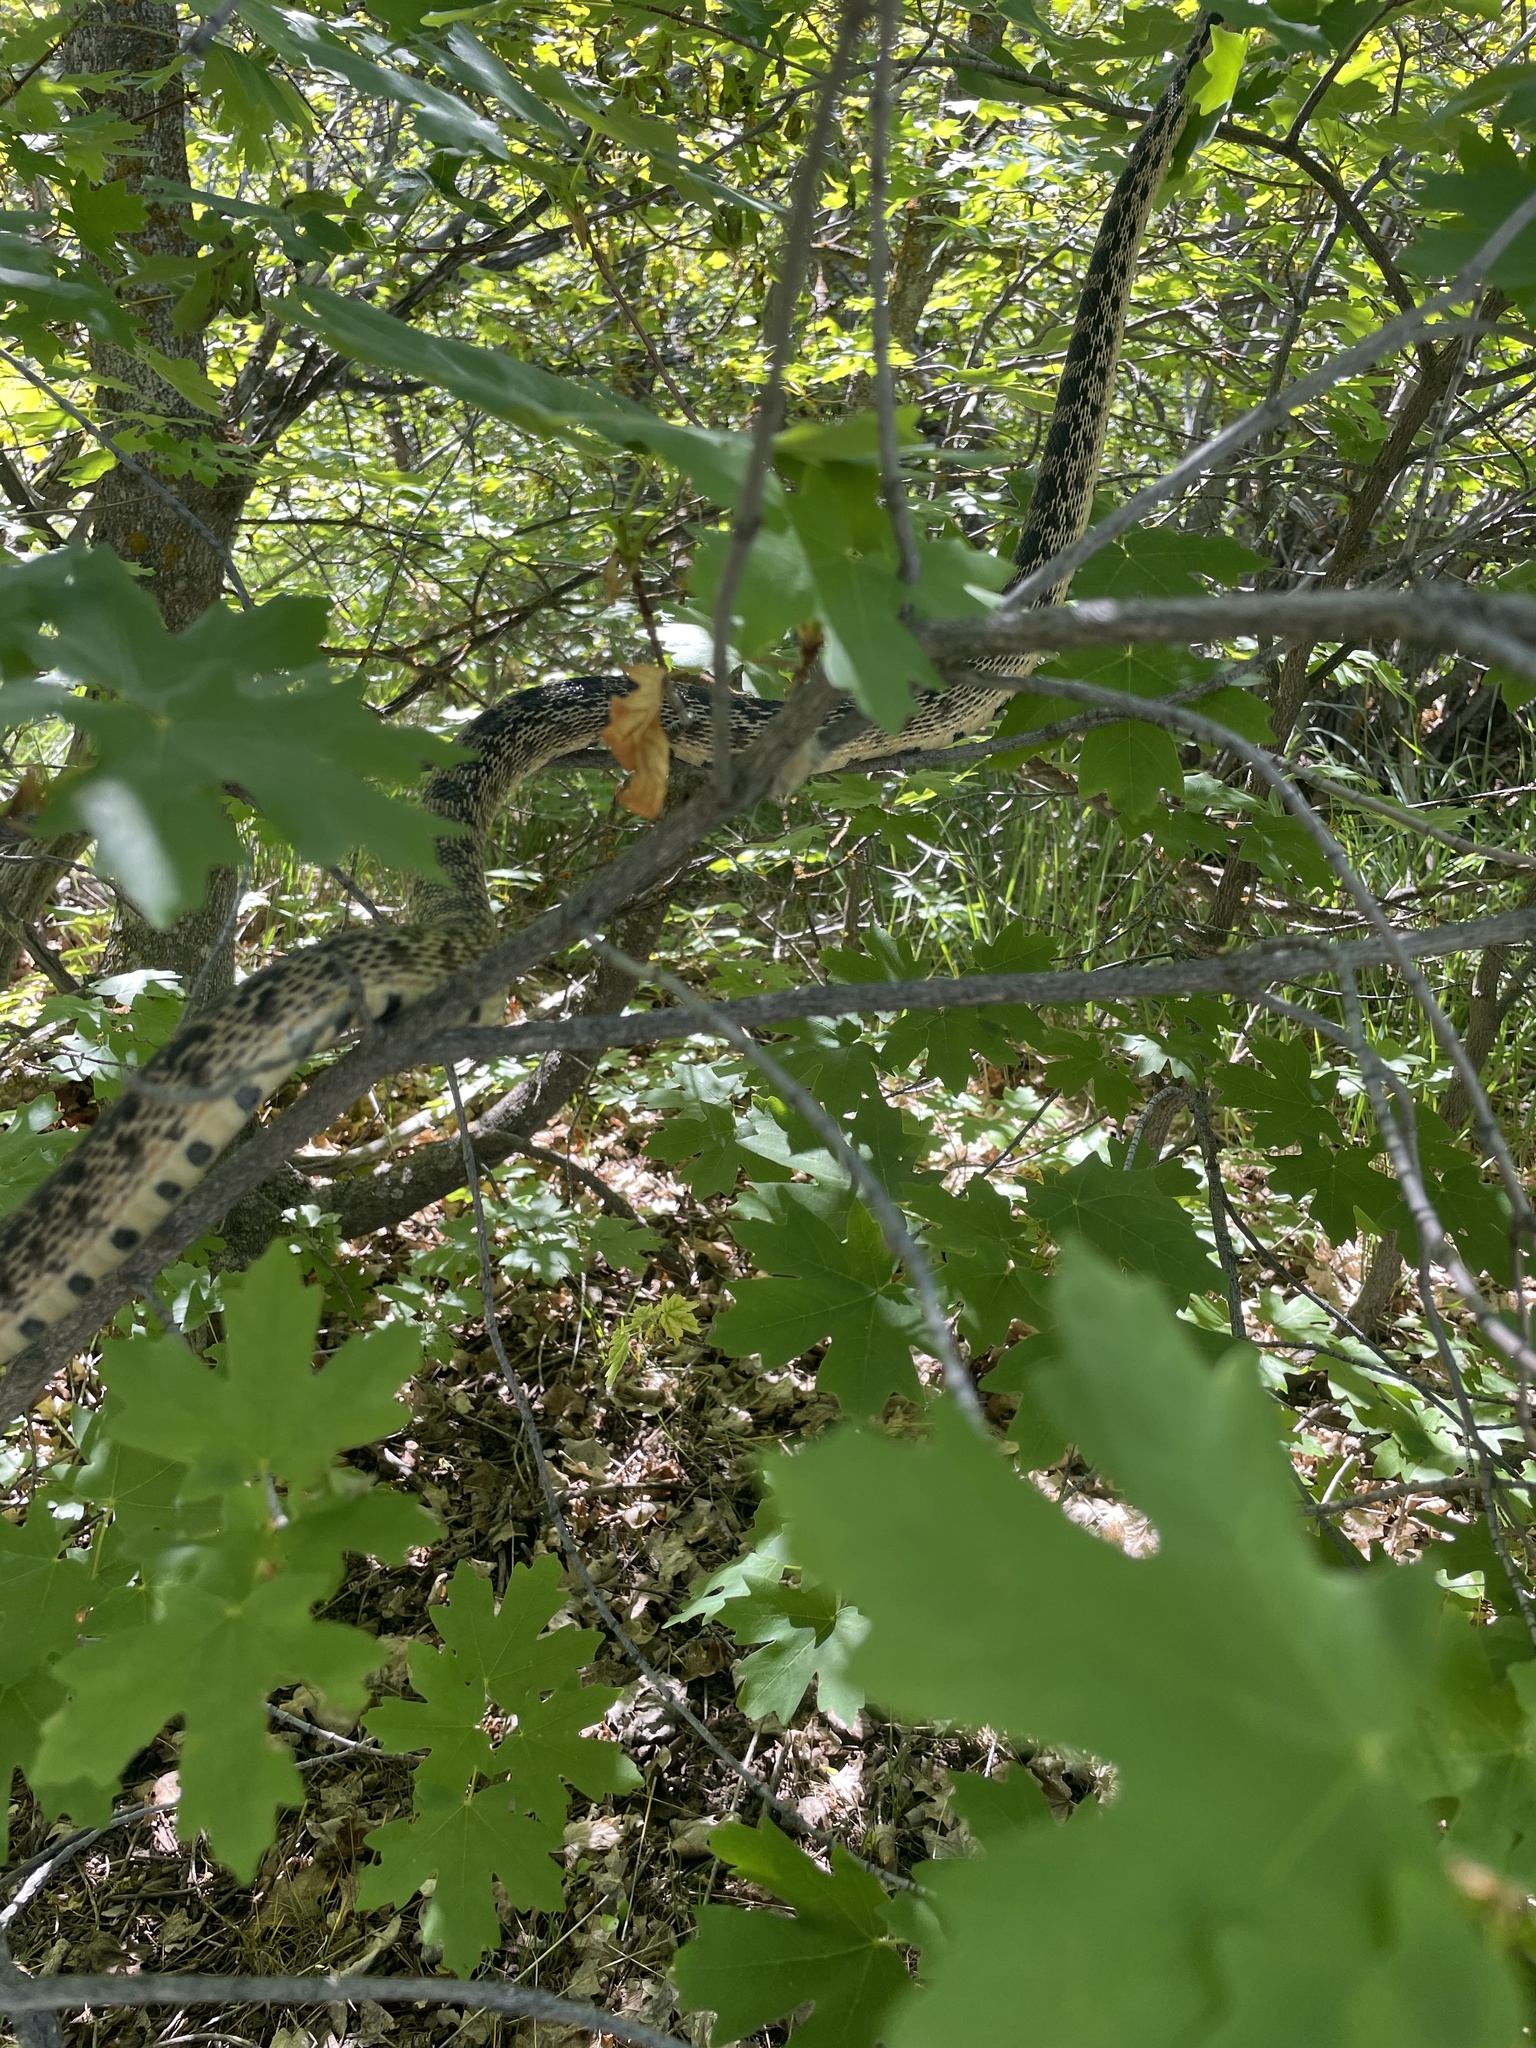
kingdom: Animalia
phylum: Chordata
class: Squamata
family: Colubridae
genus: Pituophis
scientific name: Pituophis catenifer
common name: Gopher snake
